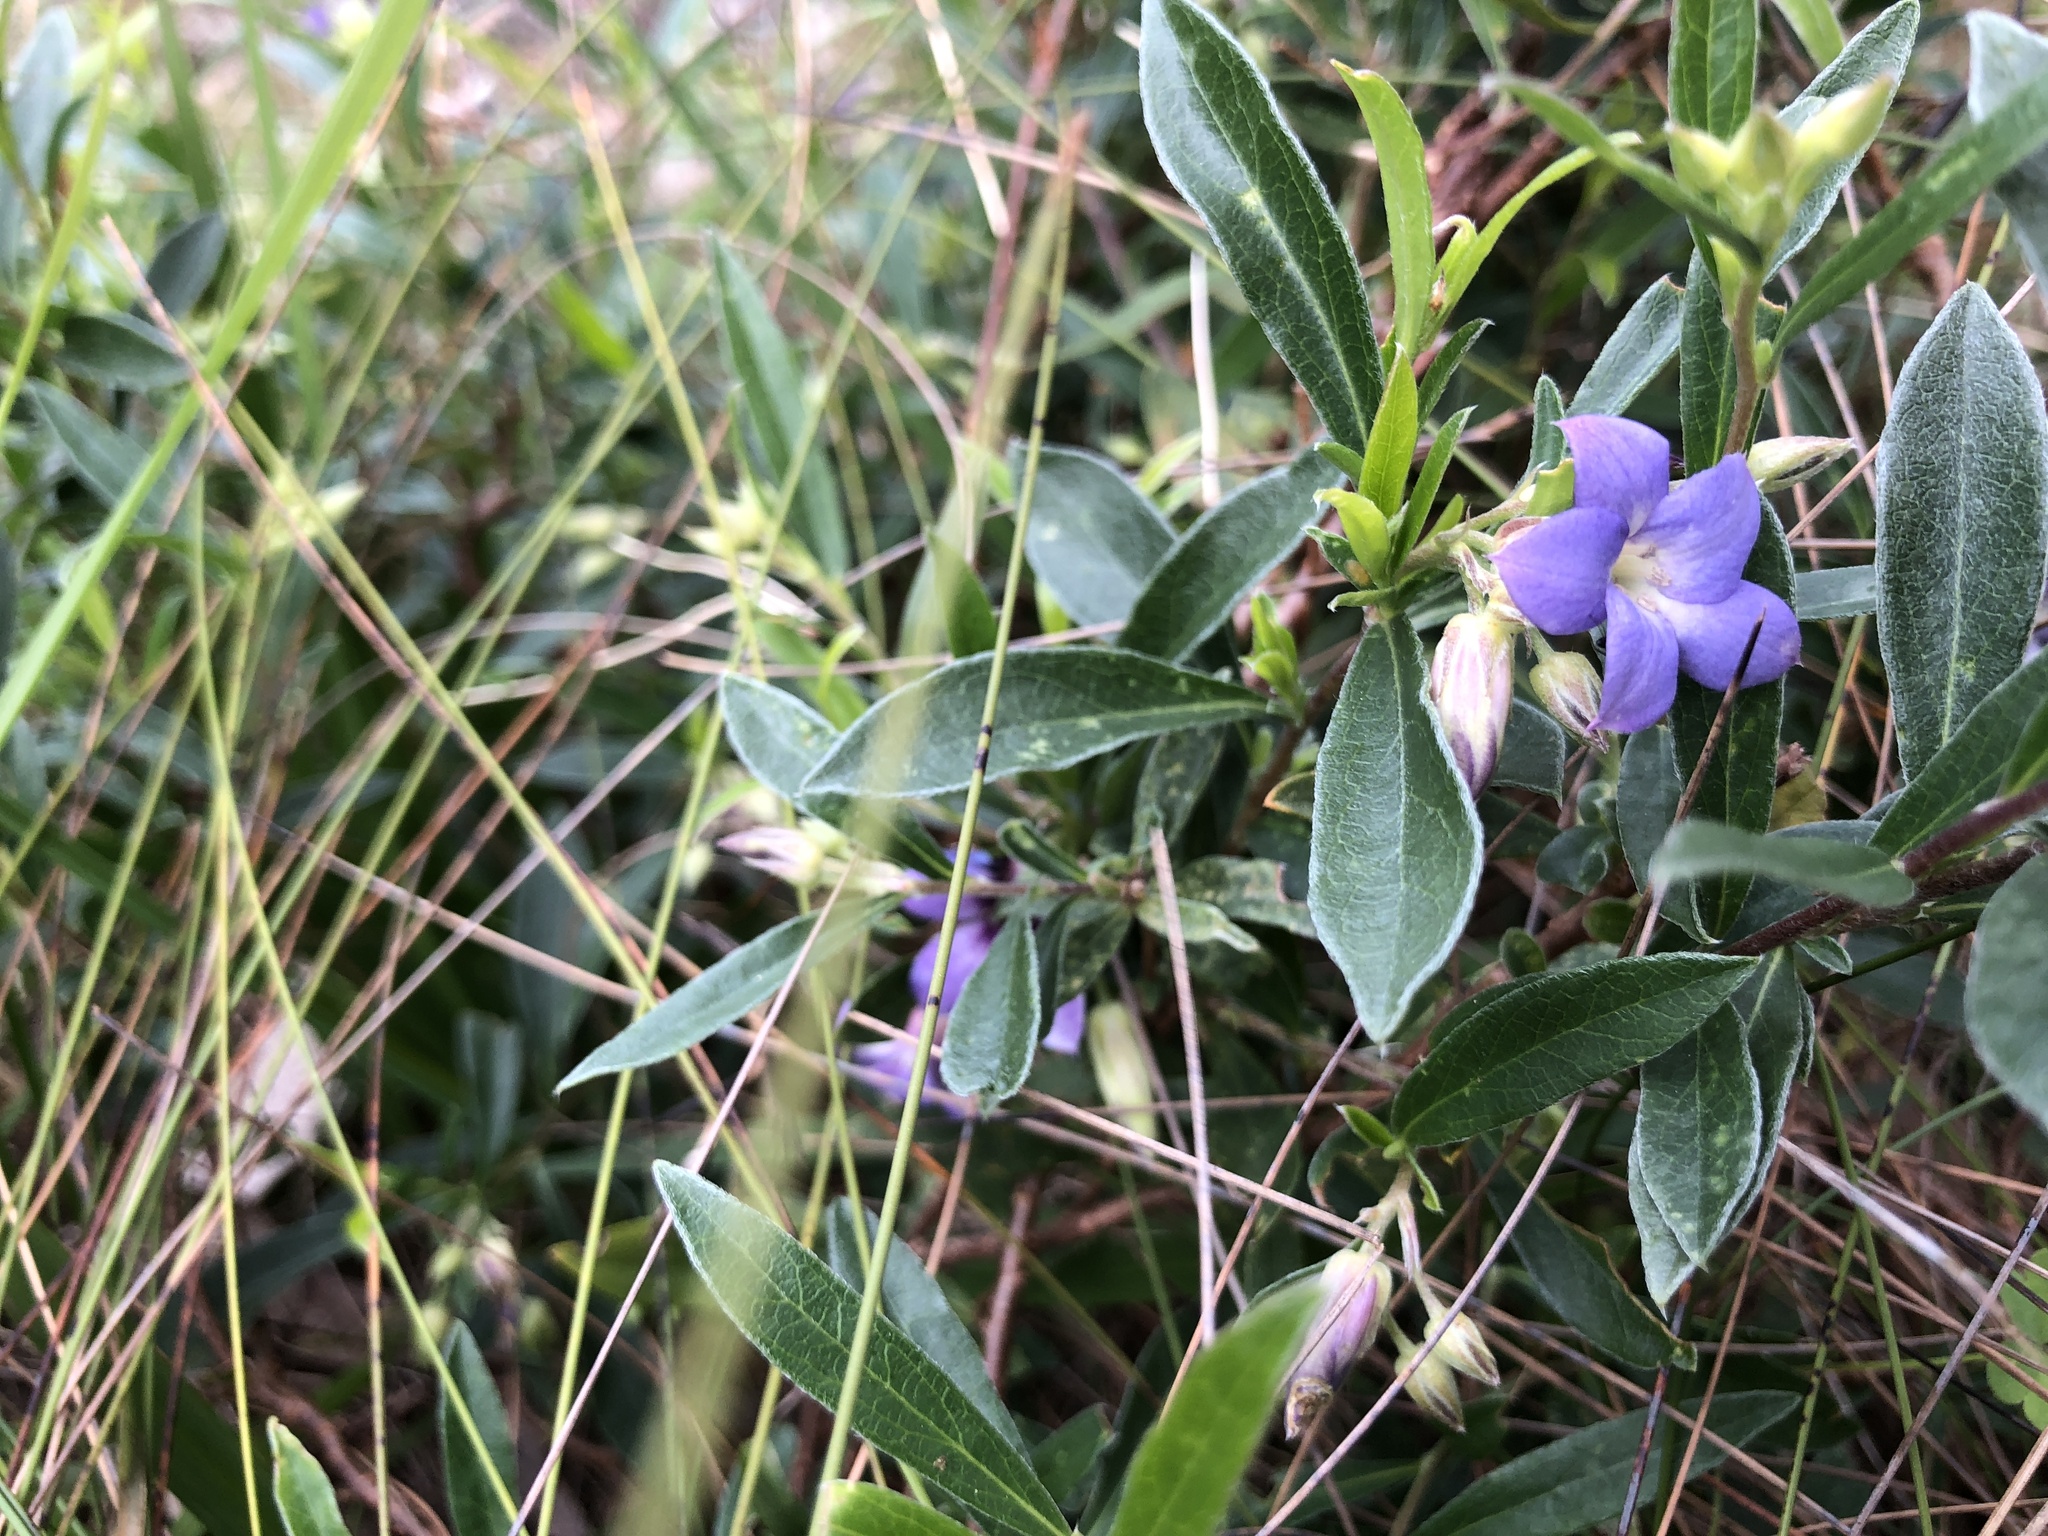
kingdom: Plantae
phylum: Tracheophyta
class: Magnoliopsida
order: Apiales
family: Pittosporaceae
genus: Billardiera
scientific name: Billardiera cymosa
